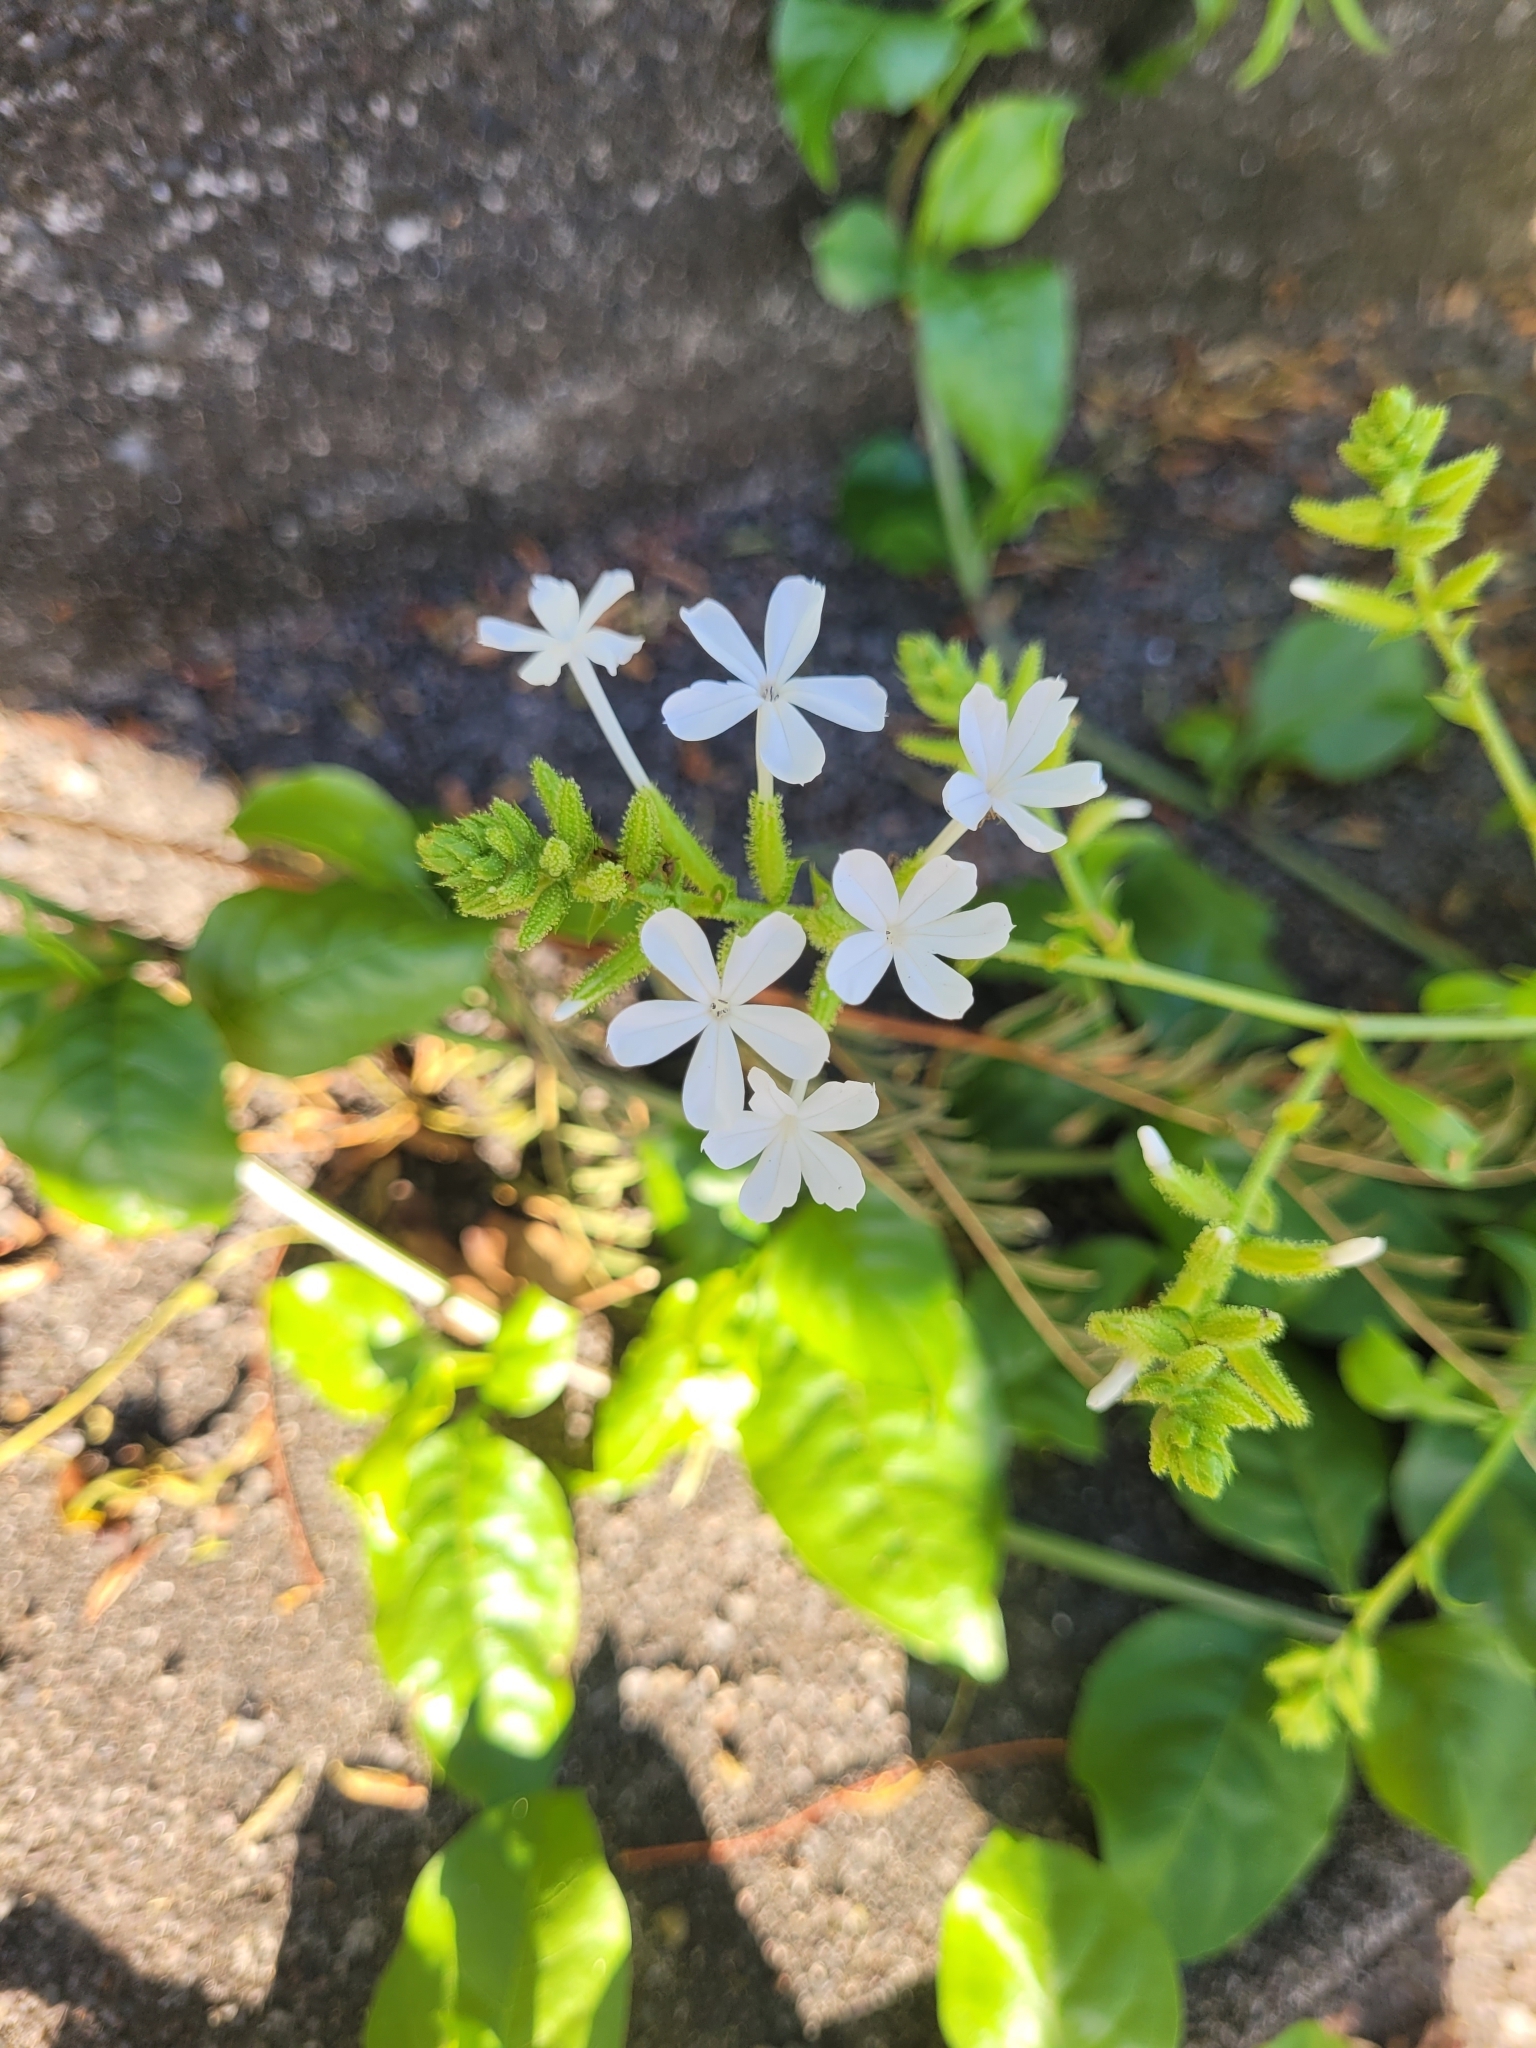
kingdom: Plantae
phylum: Tracheophyta
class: Magnoliopsida
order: Caryophyllales
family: Plumbaginaceae
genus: Plumbago
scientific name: Plumbago zeylanica
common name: Doctorbush
